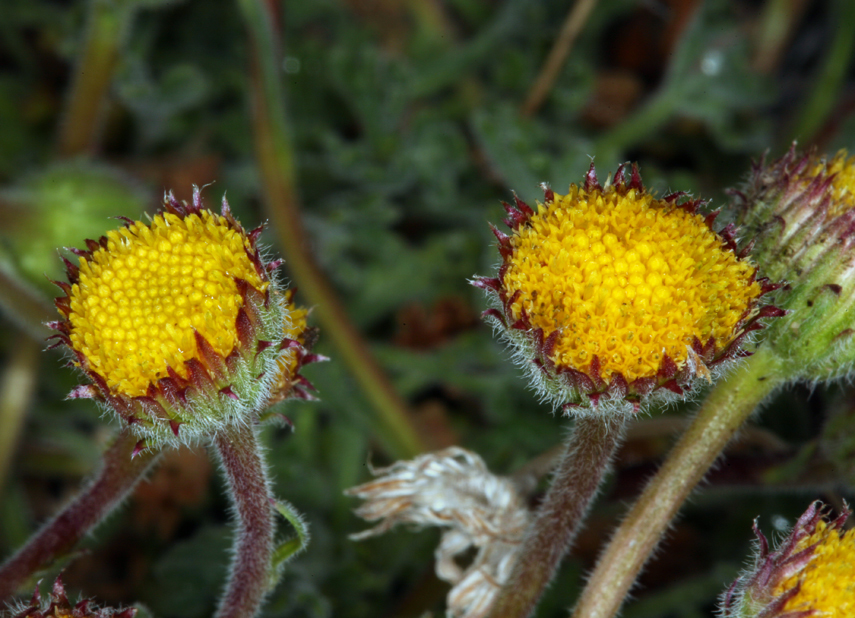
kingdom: Plantae
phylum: Tracheophyta
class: Magnoliopsida
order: Asterales
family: Asteraceae
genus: Erigeron
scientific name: Erigeron compositus
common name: Dwarf mountain fleabane
